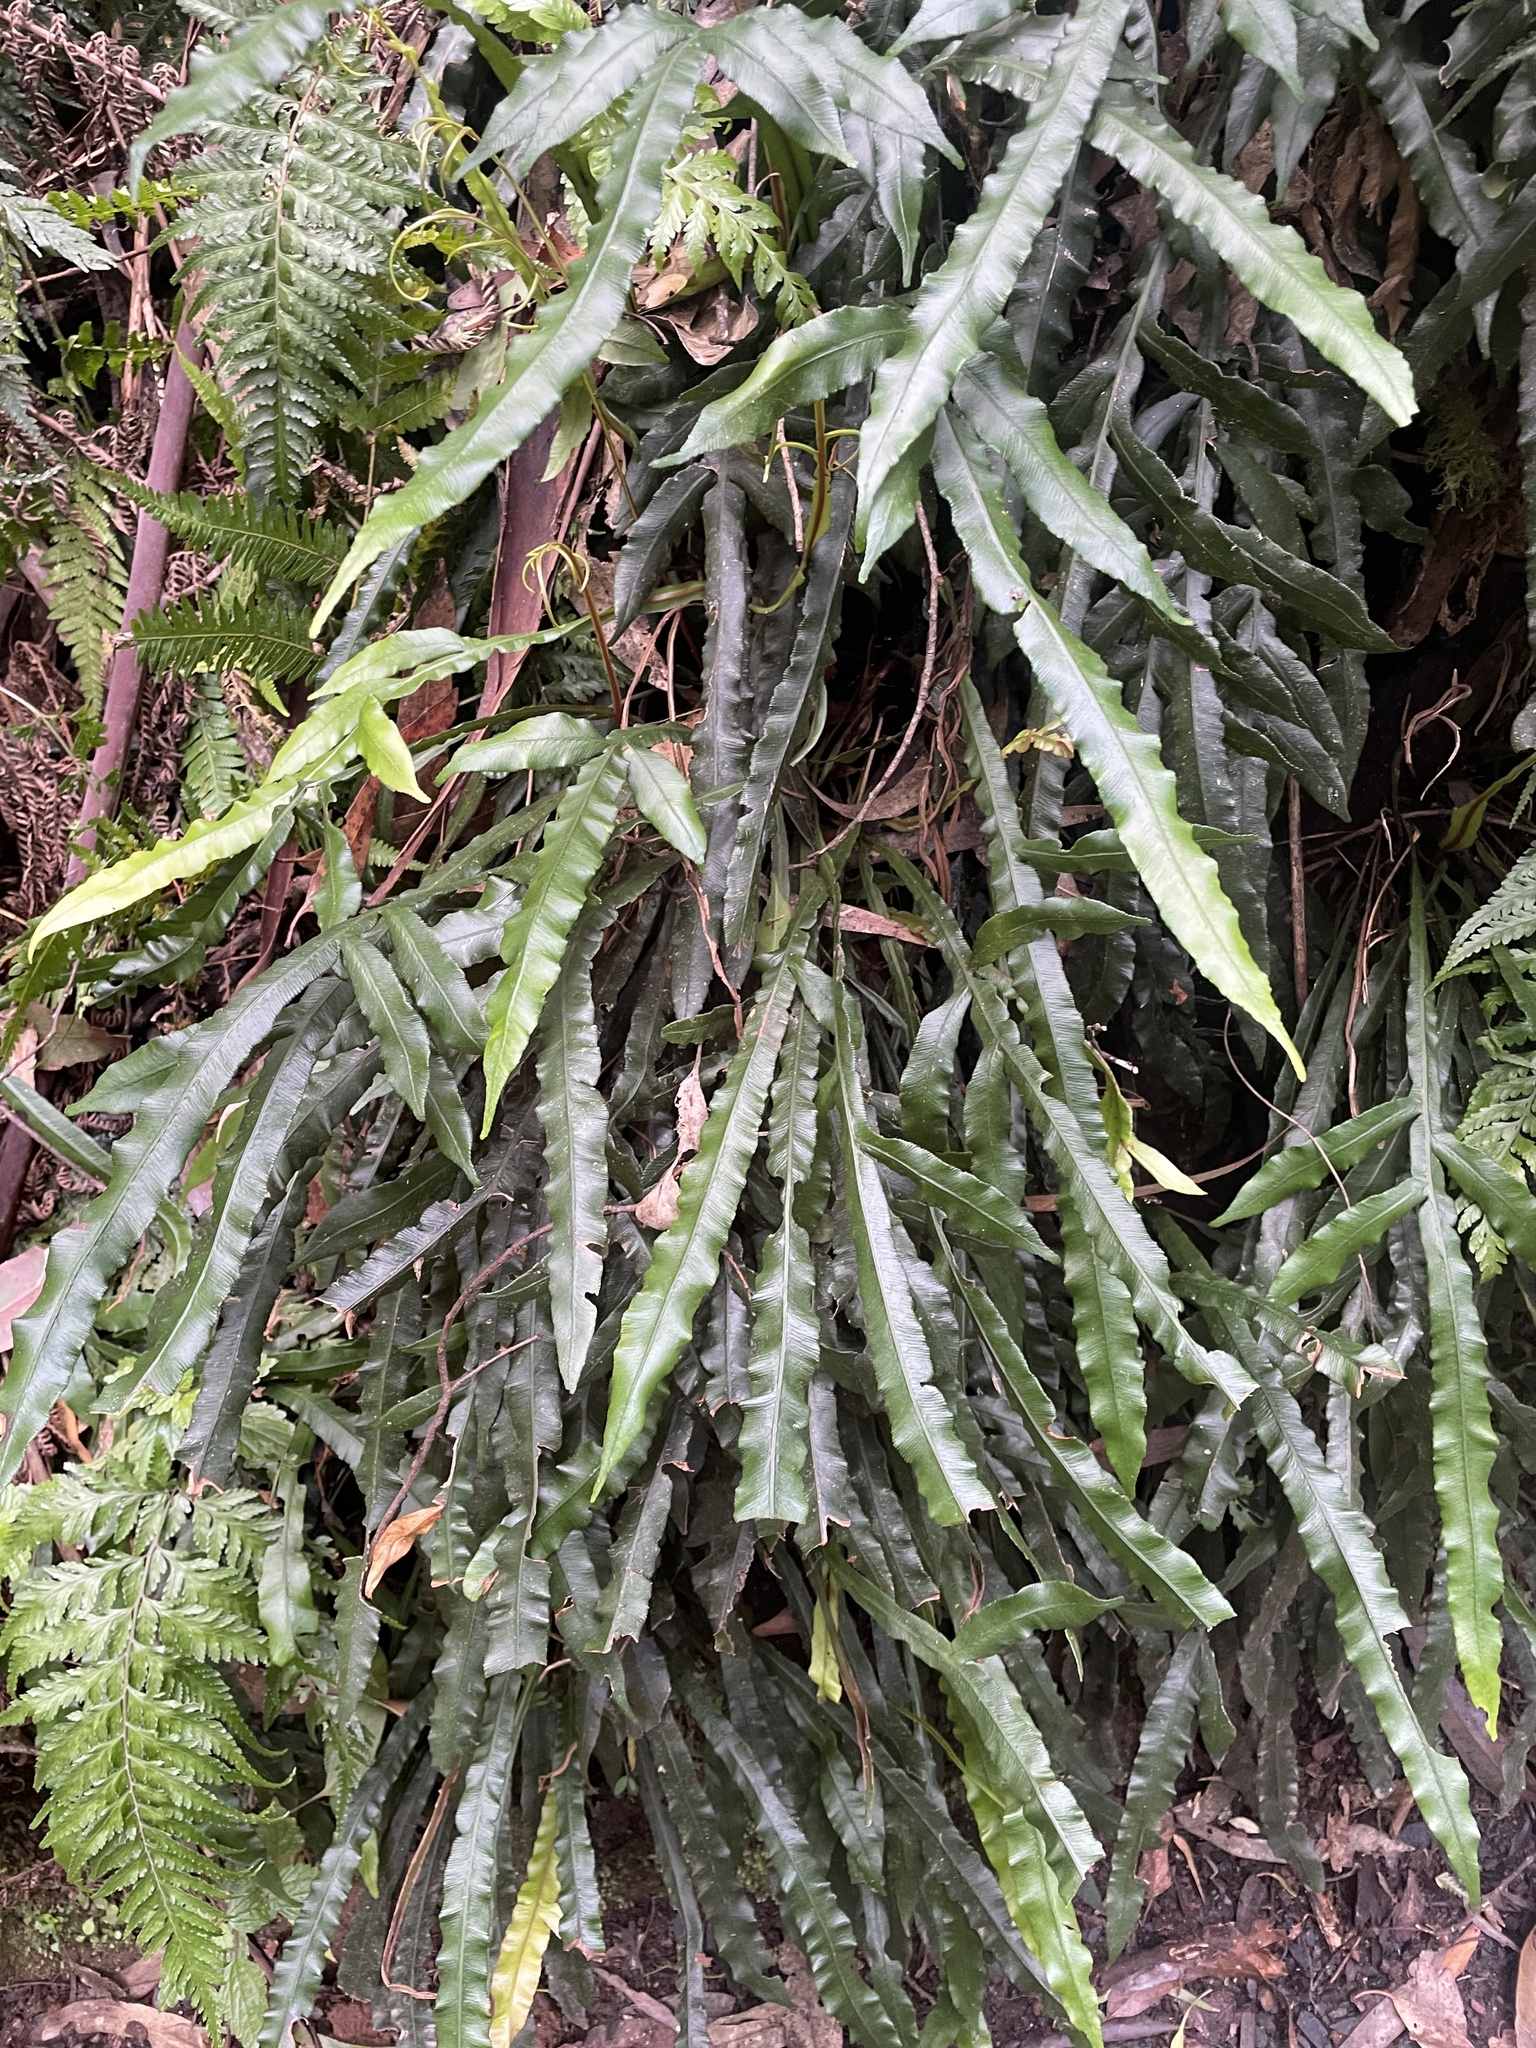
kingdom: Plantae
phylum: Tracheophyta
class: Polypodiopsida
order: Polypodiales
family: Blechnaceae
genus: Austroblechnum
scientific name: Austroblechnum patersonii
